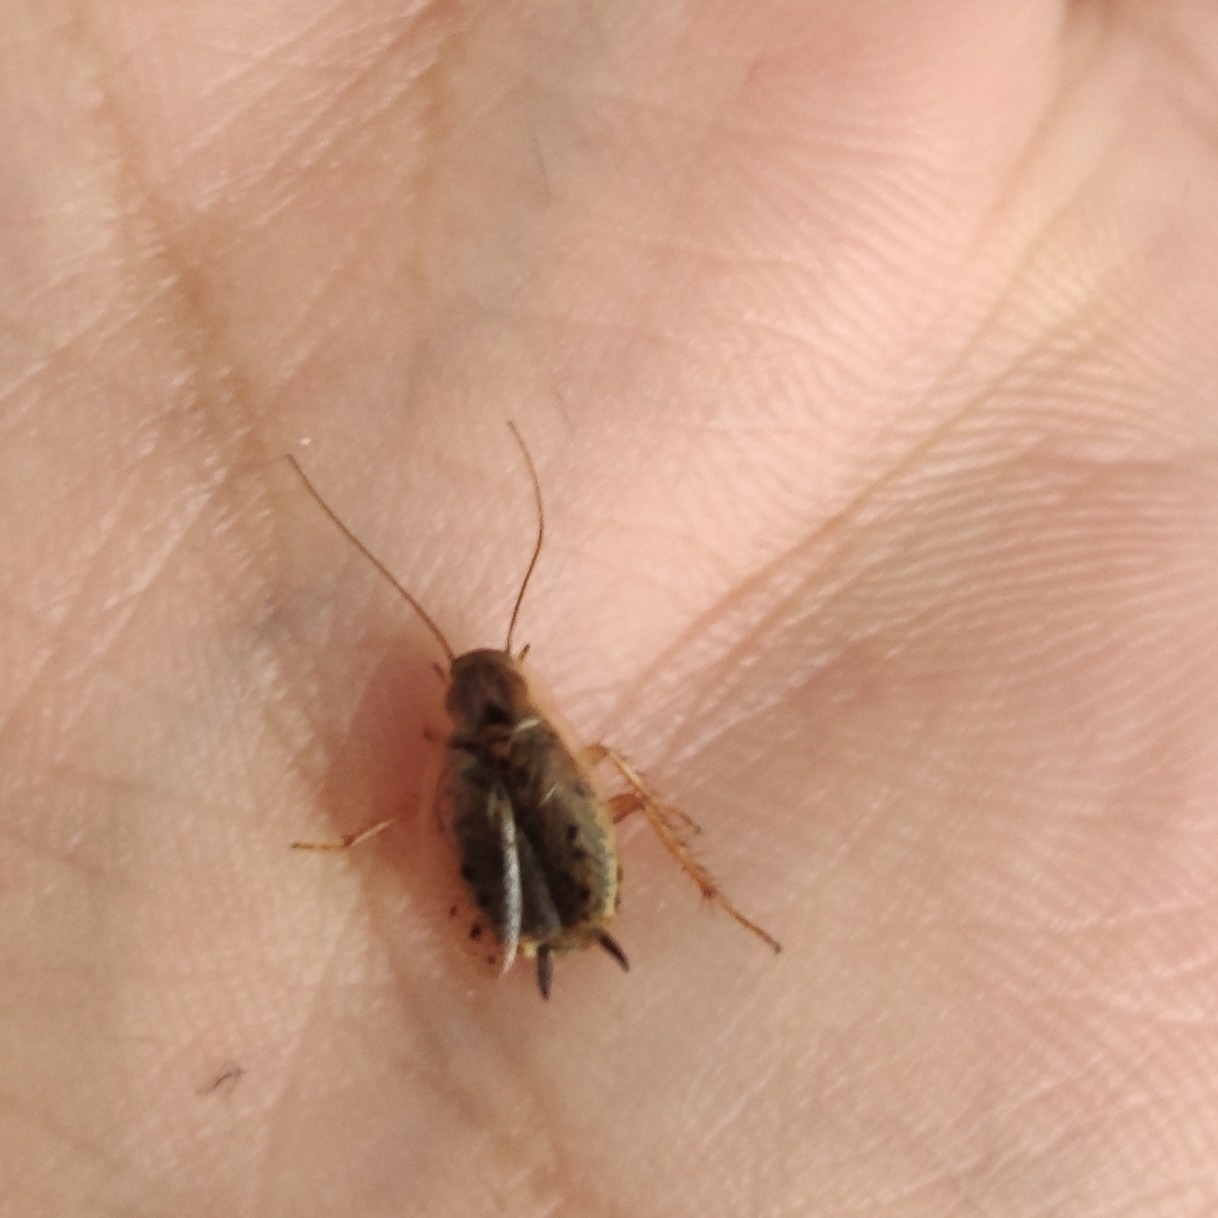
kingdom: Animalia
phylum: Arthropoda
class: Insecta
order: Blattodea
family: Ectobiidae
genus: Ectobius
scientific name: Ectobius lapponicus
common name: Dusky cockroach
